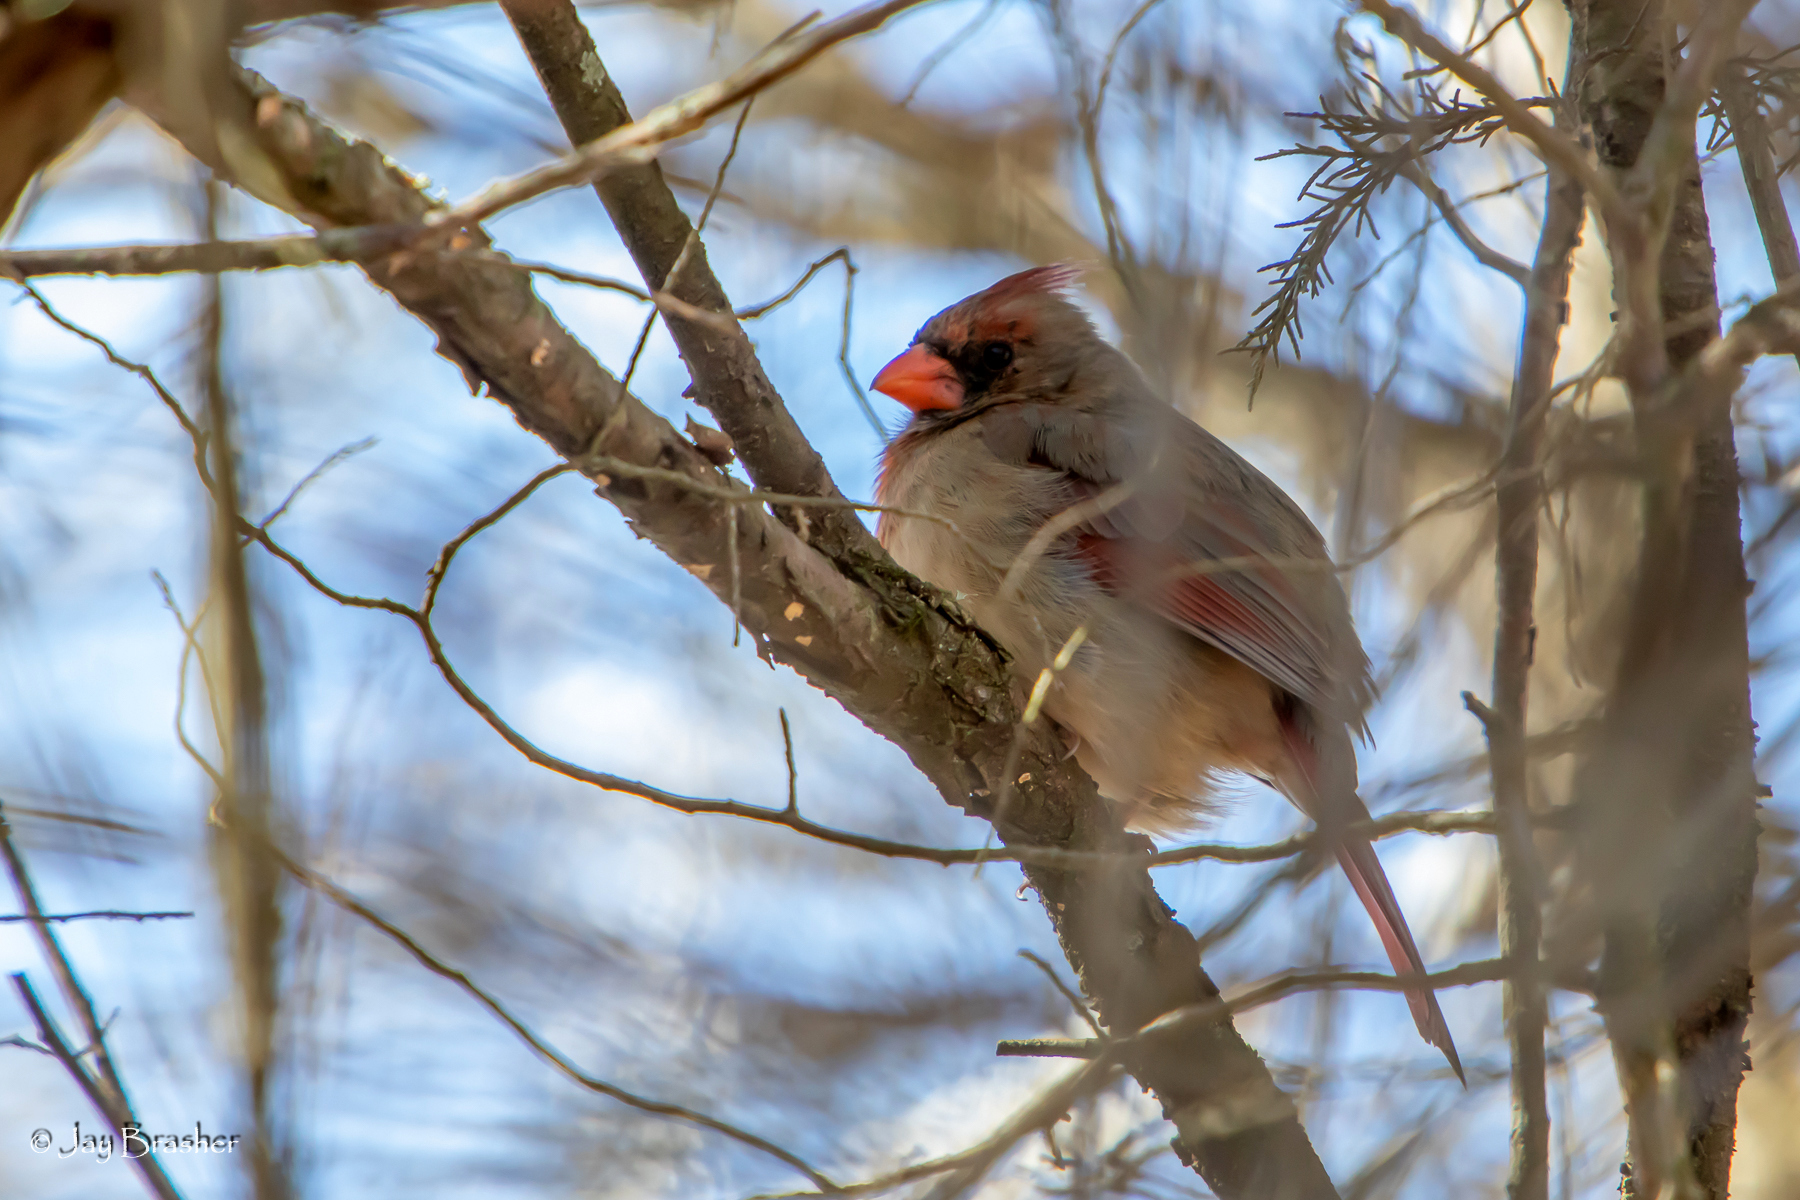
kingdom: Animalia
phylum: Chordata
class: Aves
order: Passeriformes
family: Cardinalidae
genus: Cardinalis
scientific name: Cardinalis cardinalis
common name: Northern cardinal
